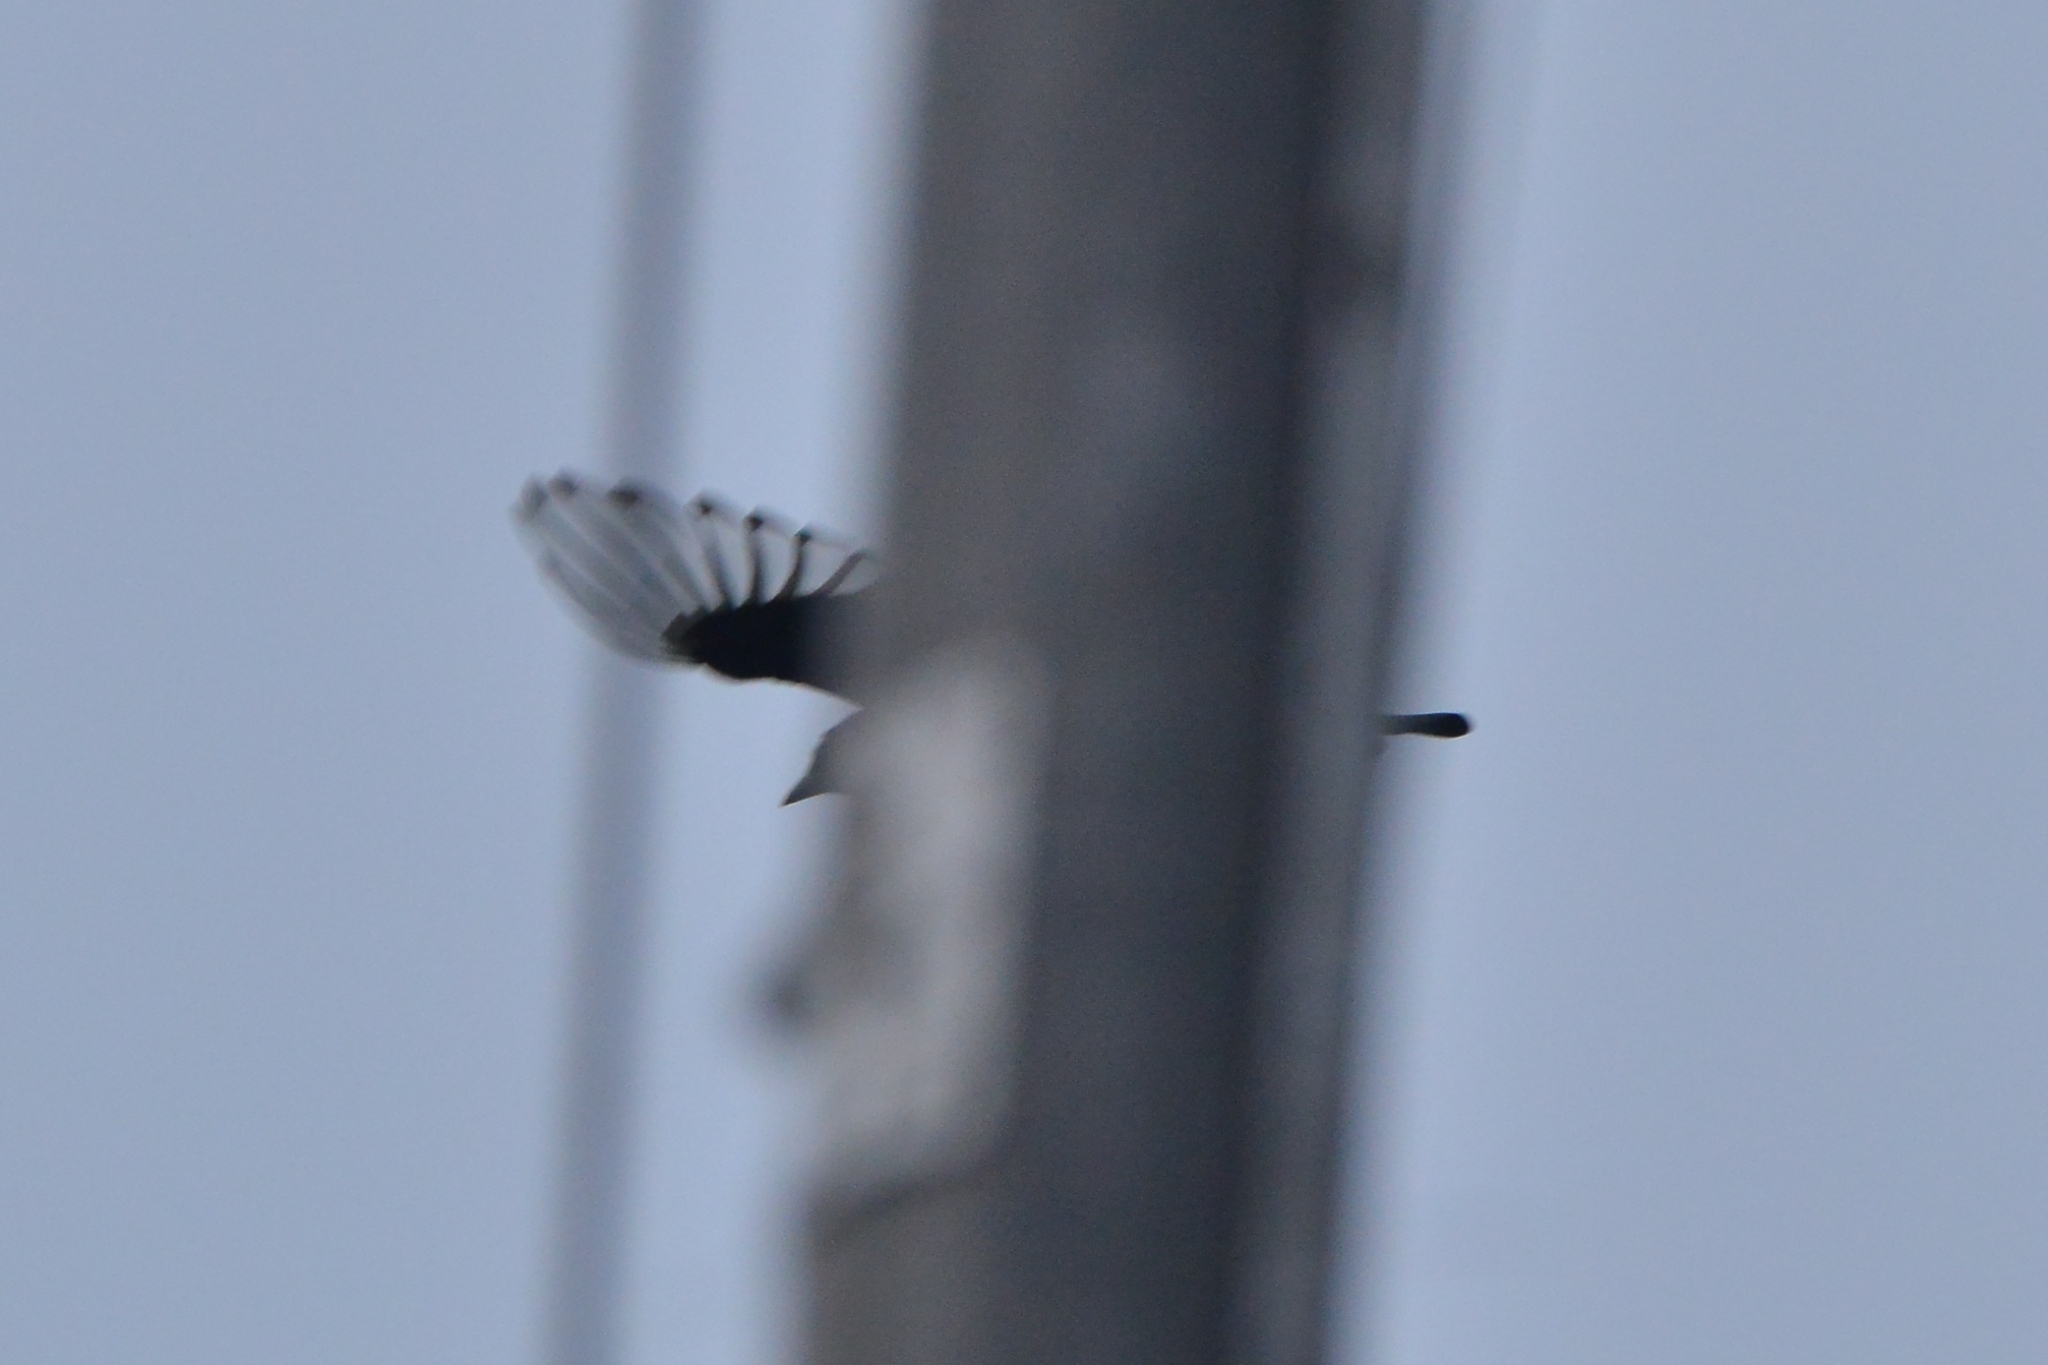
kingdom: Animalia
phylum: Chordata
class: Aves
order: Passeriformes
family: Corvidae
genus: Pica
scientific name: Pica pica
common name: Eurasian magpie
